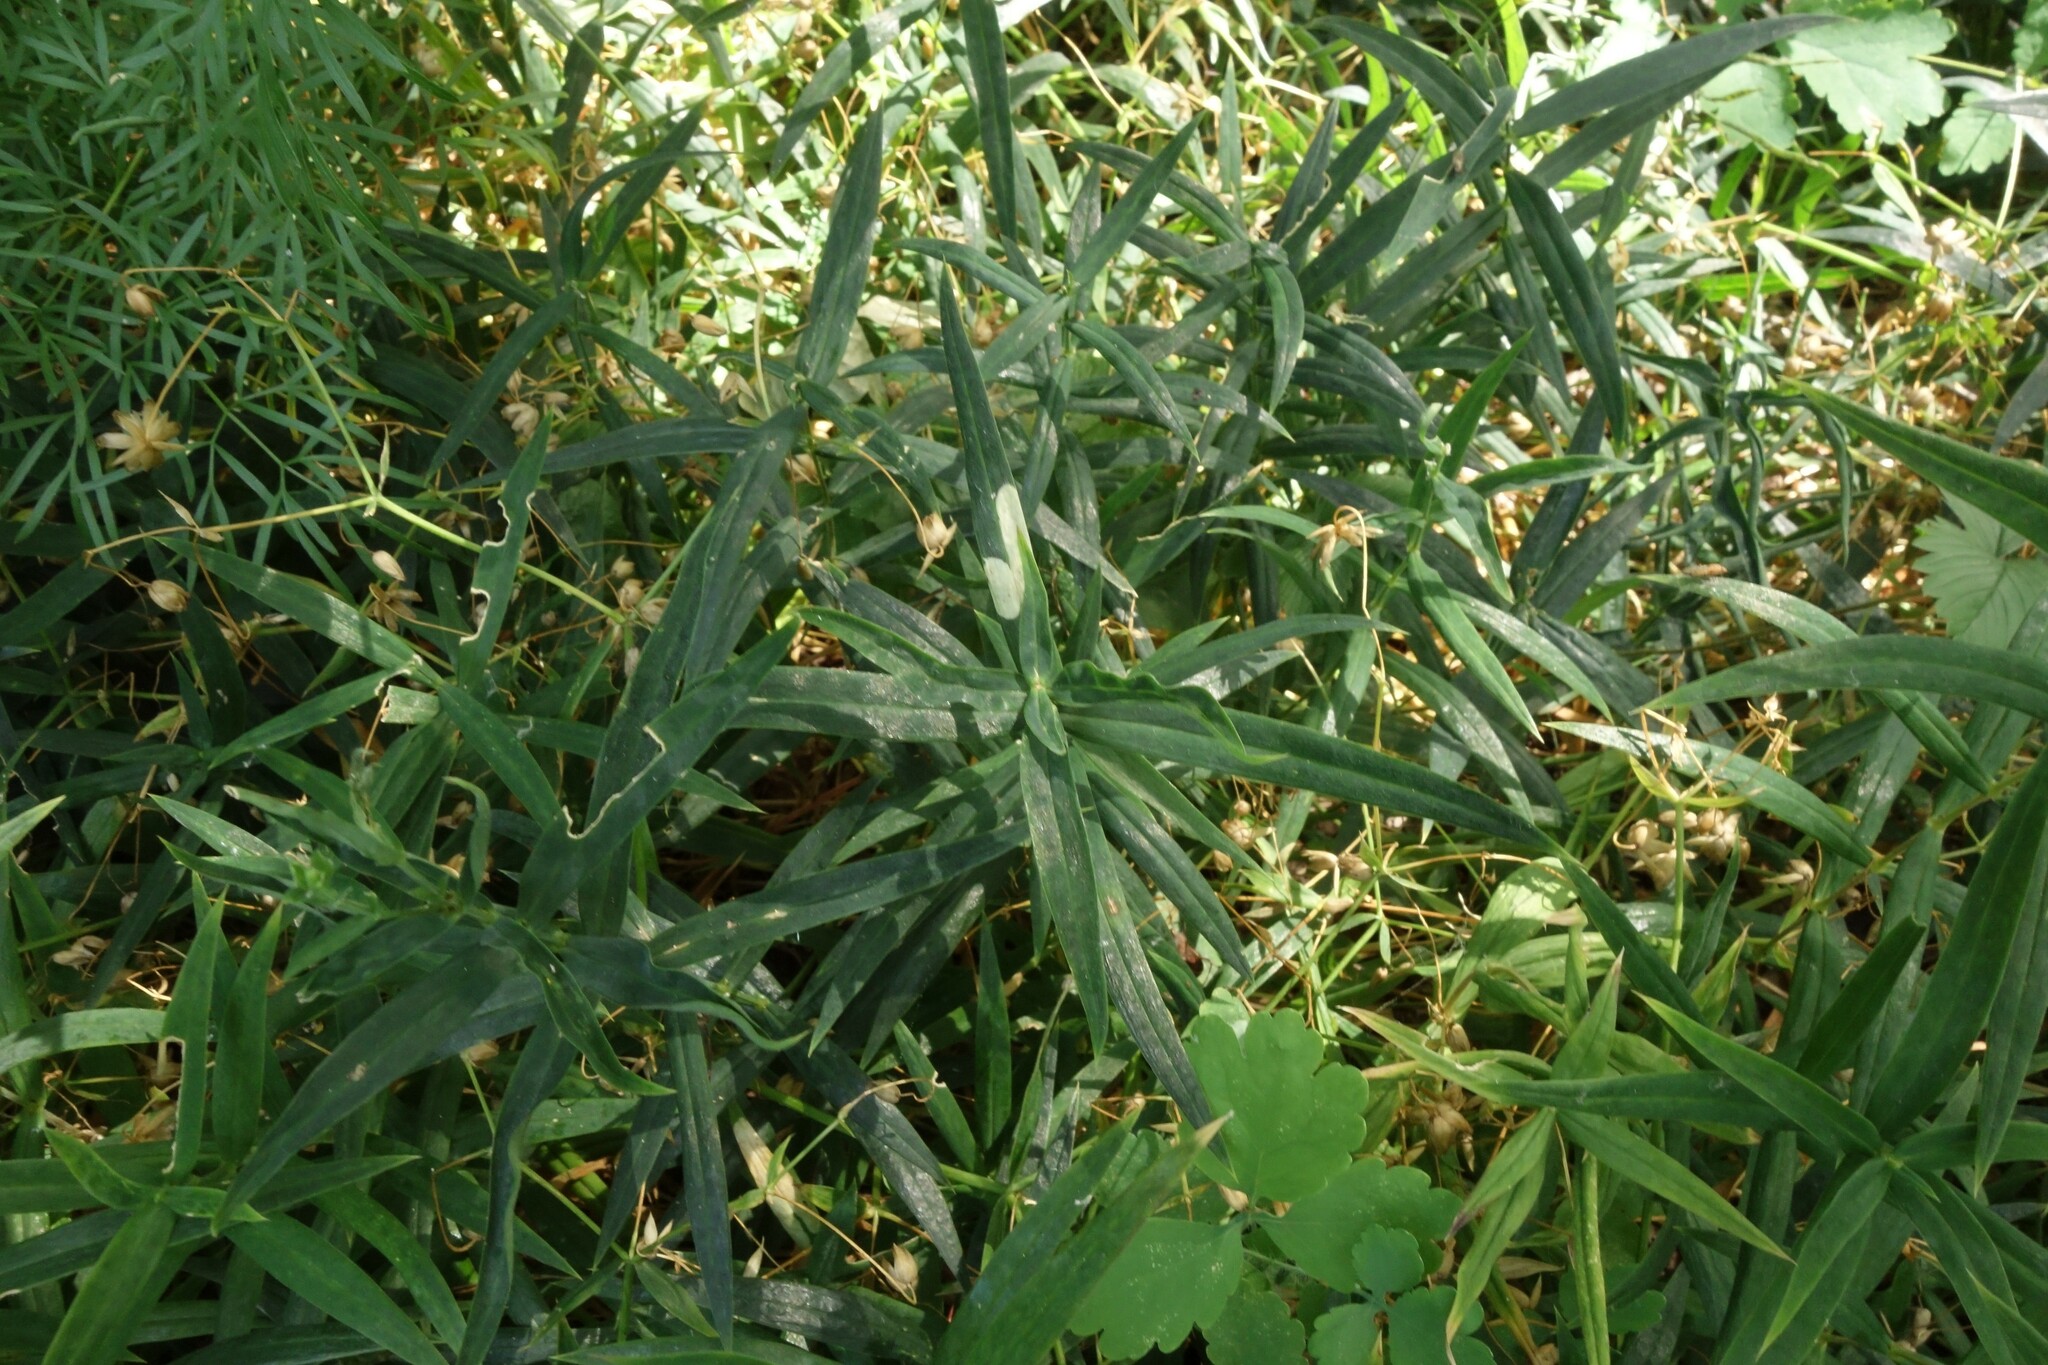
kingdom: Plantae
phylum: Tracheophyta
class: Magnoliopsida
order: Caryophyllales
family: Caryophyllaceae
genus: Rabelera
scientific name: Rabelera holostea
